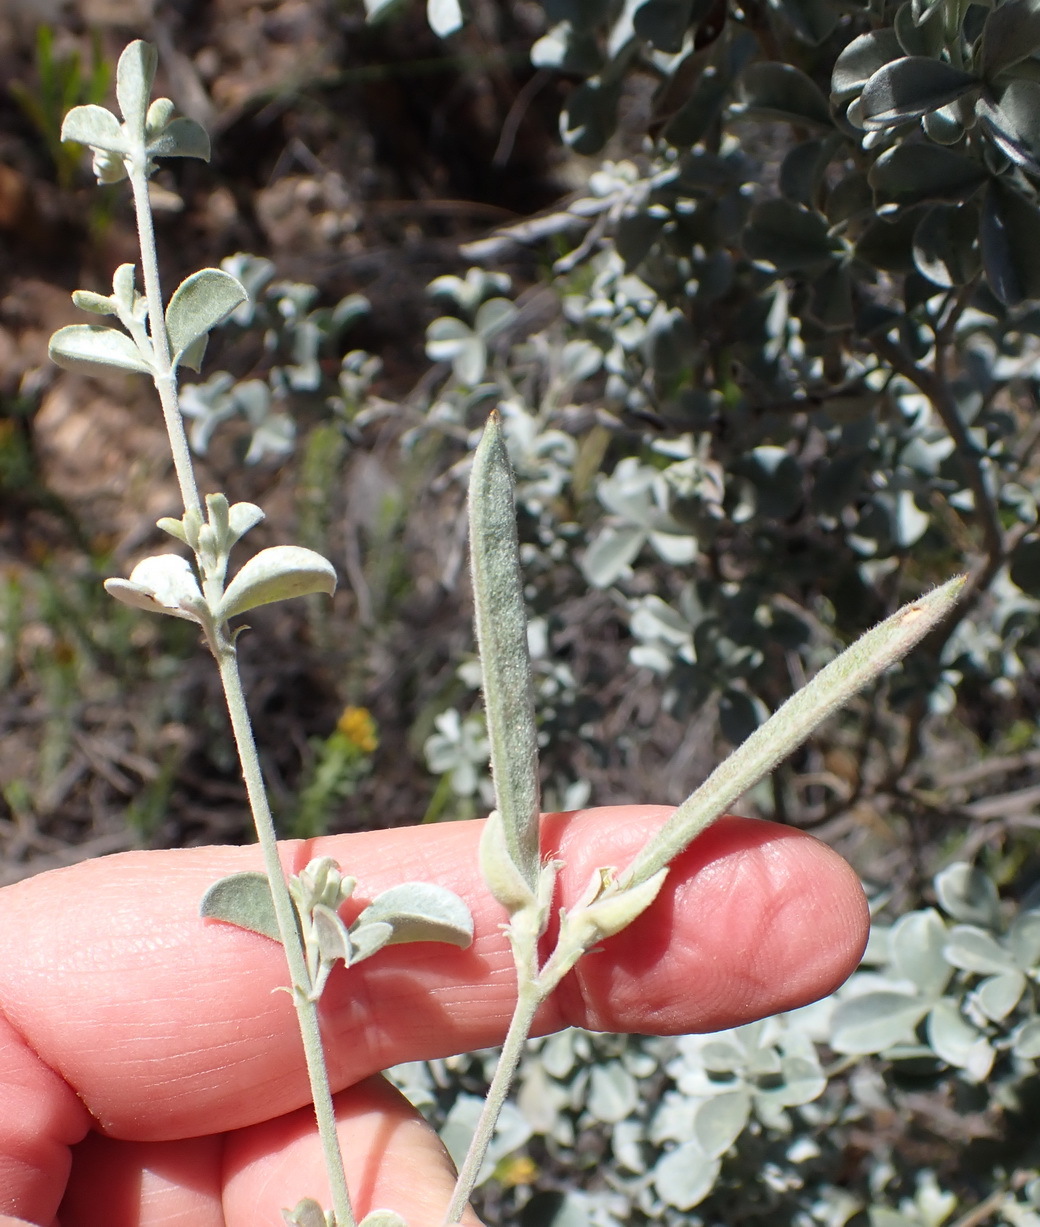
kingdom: Plantae
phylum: Tracheophyta
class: Magnoliopsida
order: Fabales
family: Fabaceae
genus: Argyrolobium
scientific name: Argyrolobium incanum
